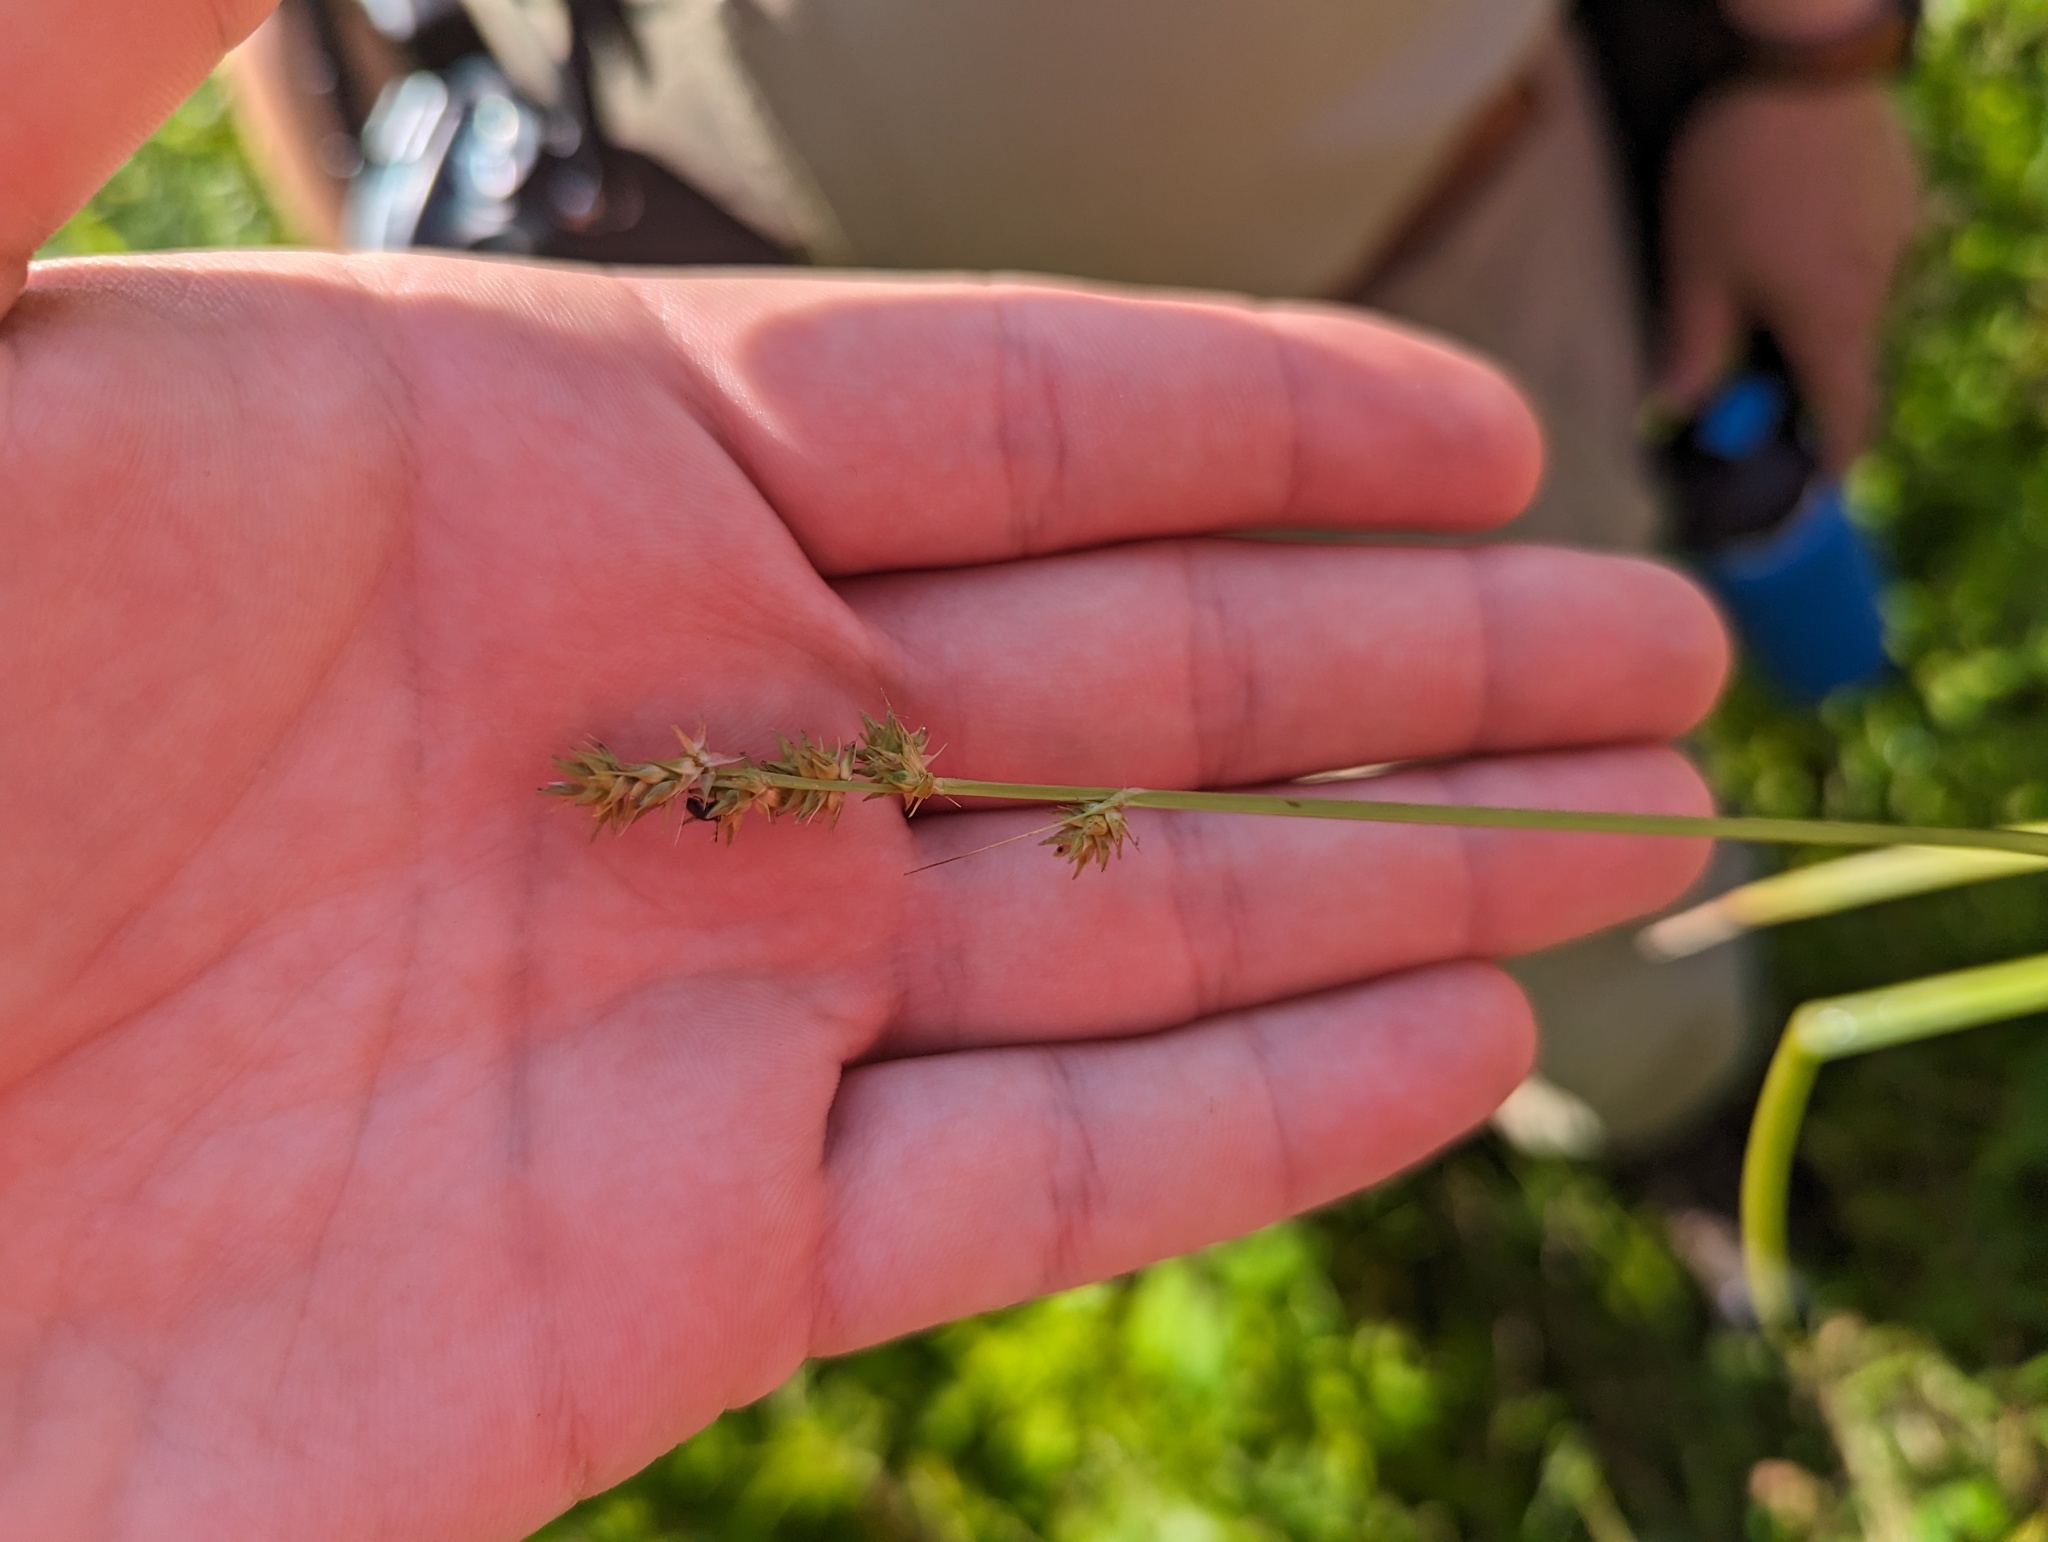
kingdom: Plantae
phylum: Tracheophyta
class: Liliopsida
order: Poales
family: Cyperaceae
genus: Carex
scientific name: Carex conjuncta
